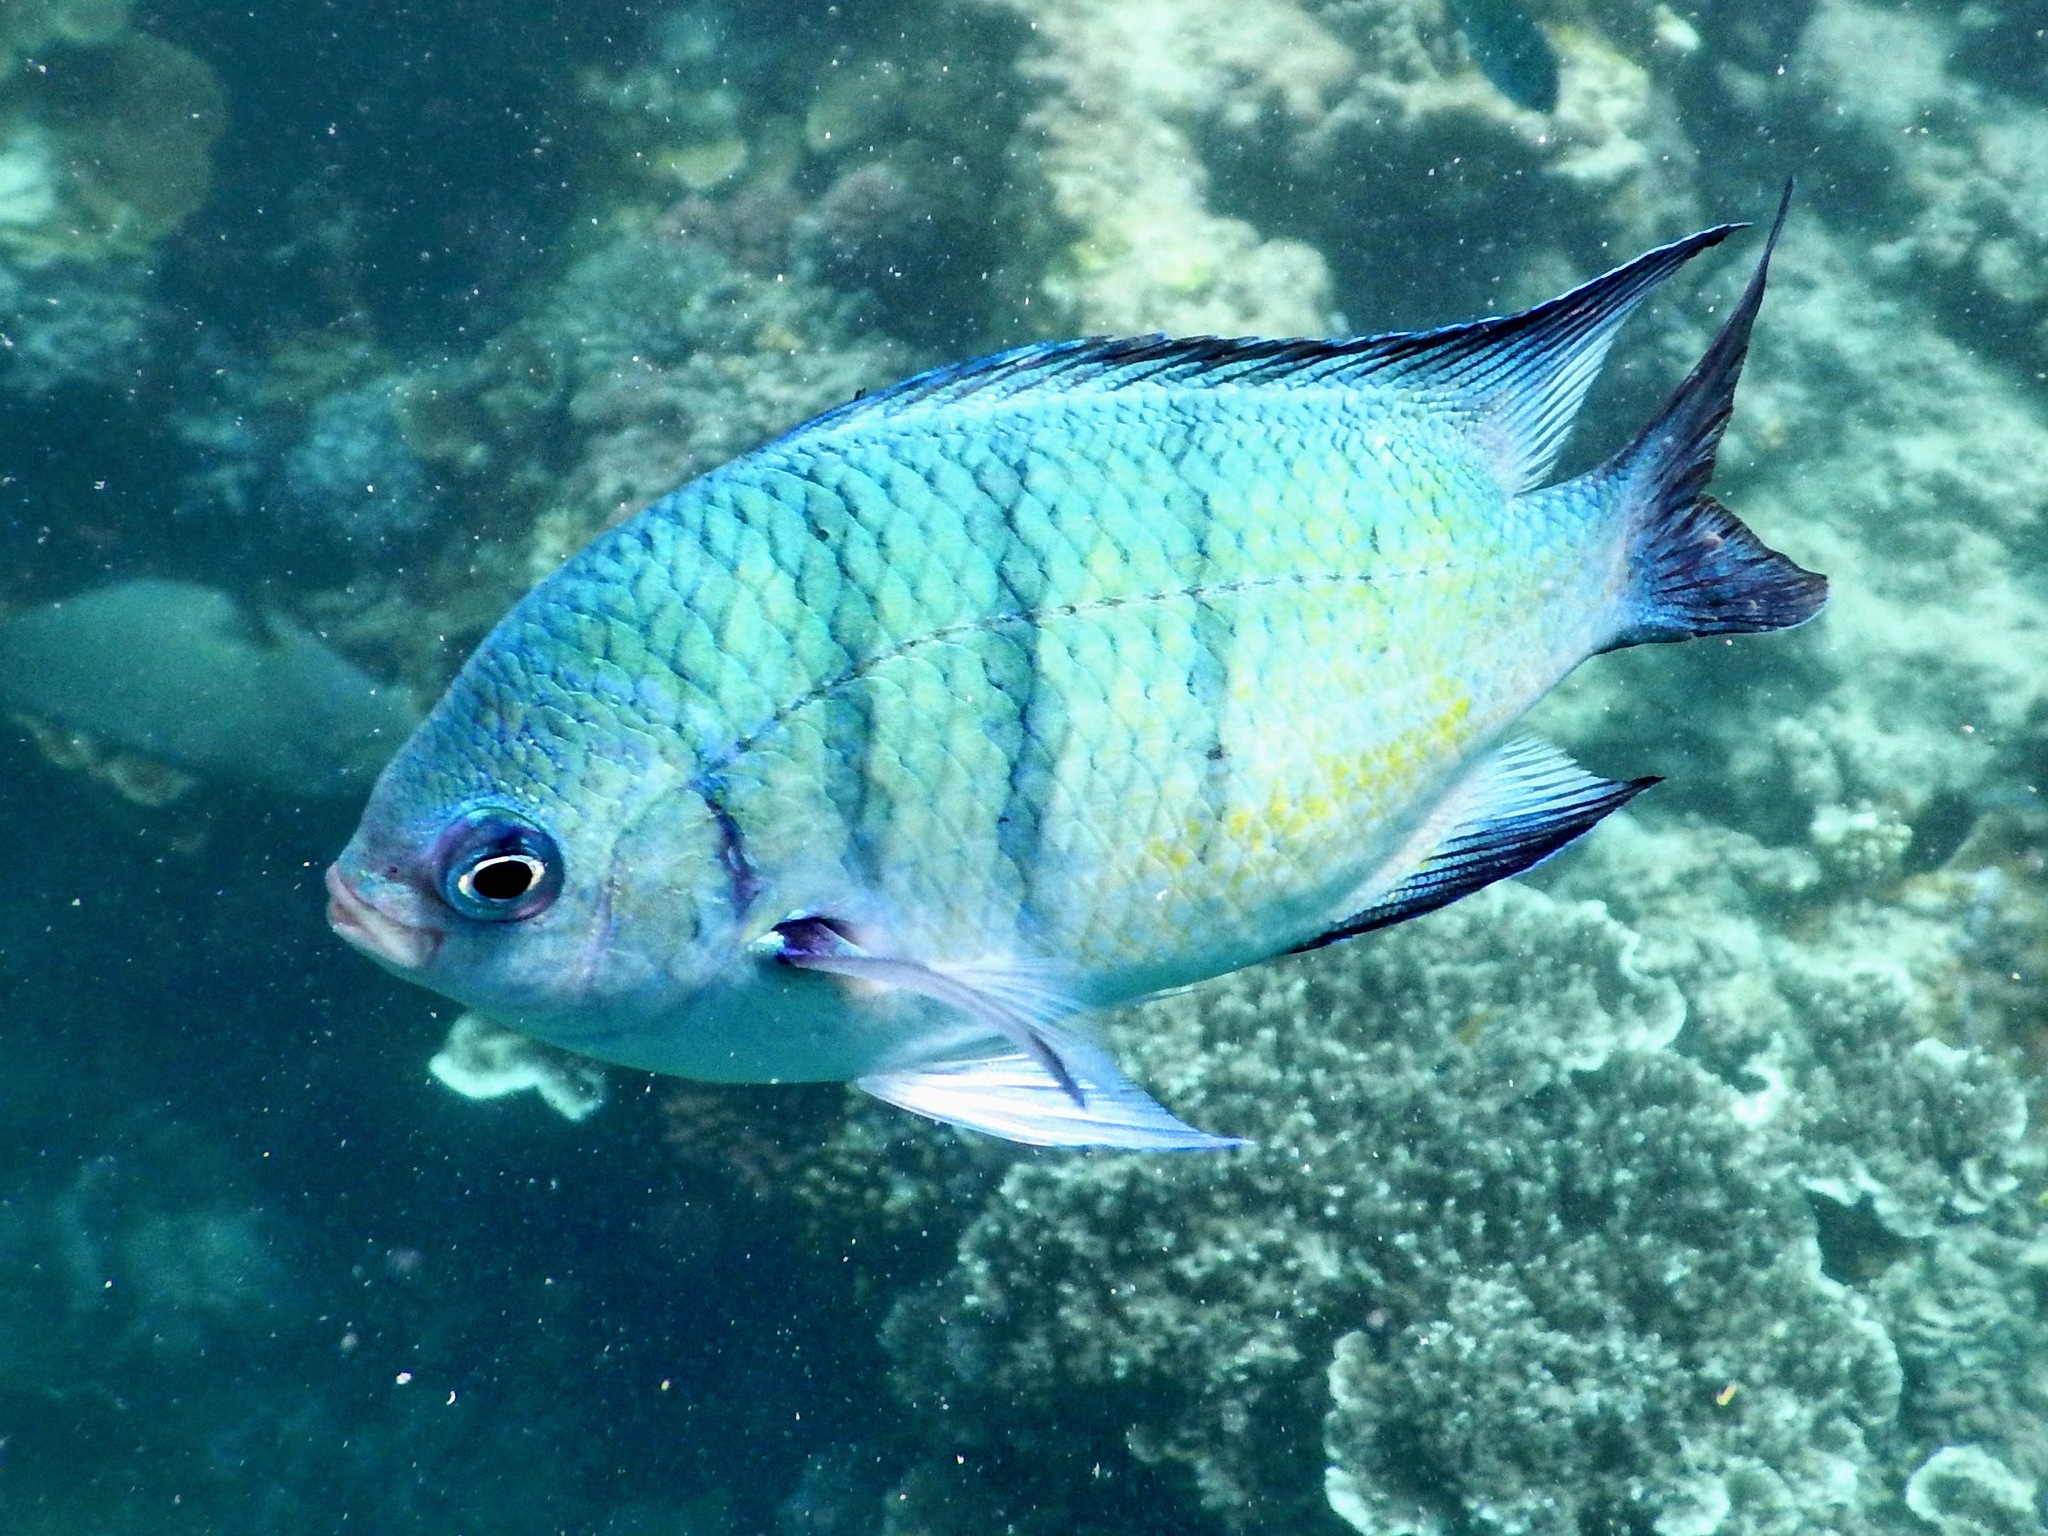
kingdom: Animalia
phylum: Chordata
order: Perciformes
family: Pomacentridae
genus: Abudefduf
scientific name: Abudefduf whitleyi
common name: Whitley's seargent
